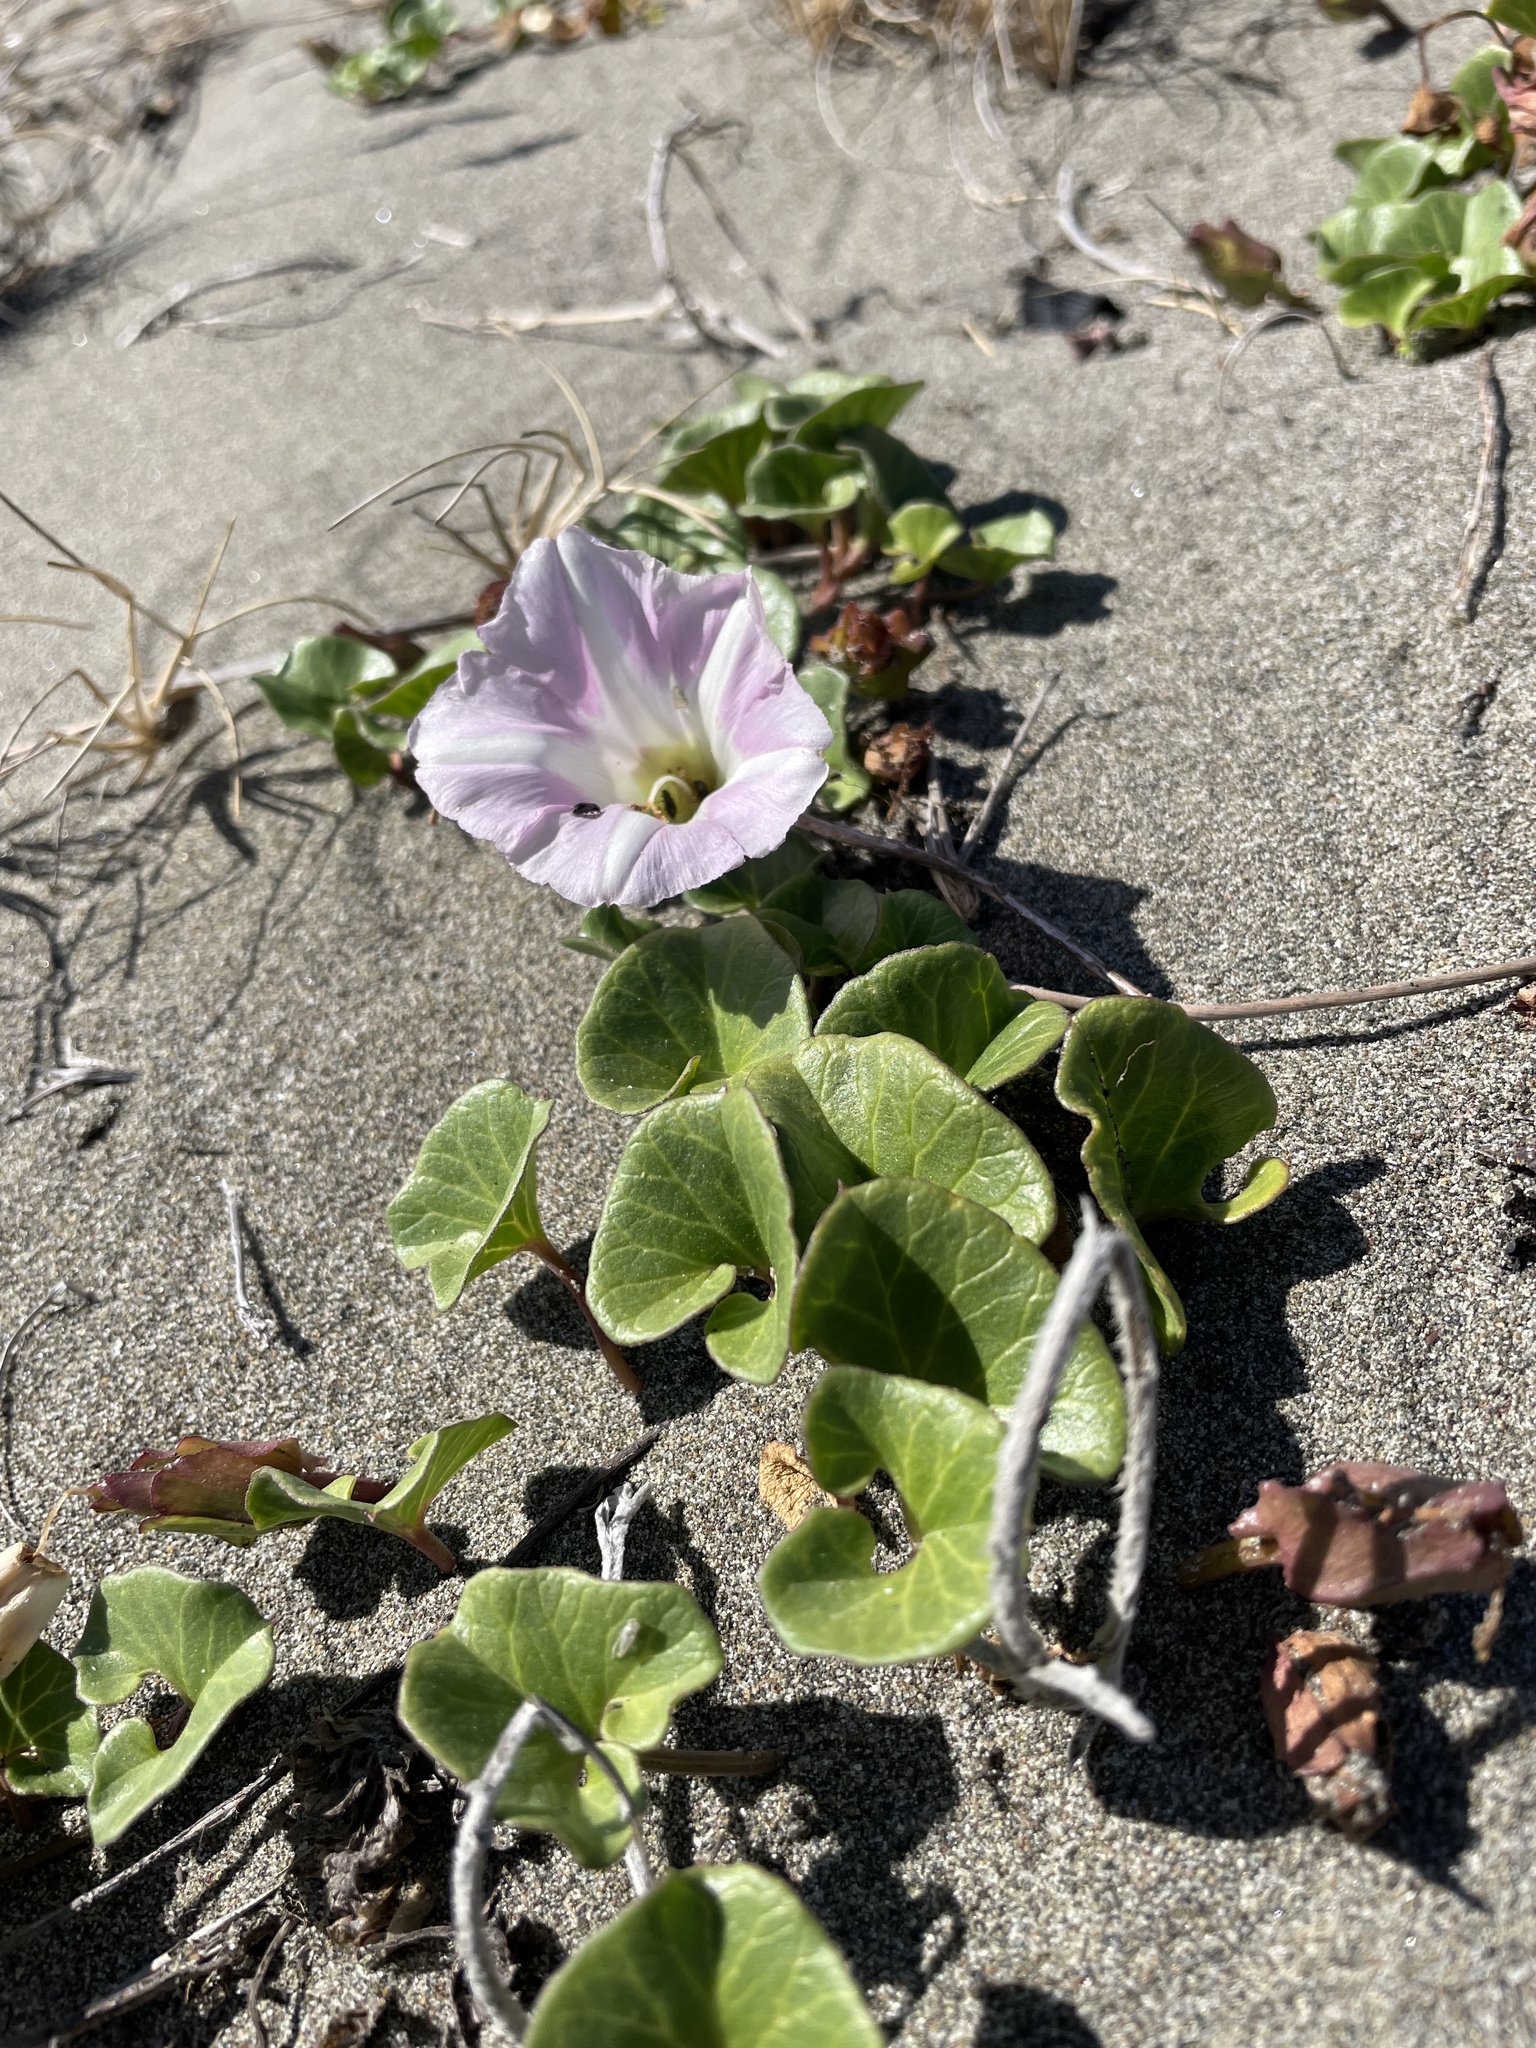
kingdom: Plantae
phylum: Tracheophyta
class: Magnoliopsida
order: Solanales
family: Convolvulaceae
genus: Calystegia
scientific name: Calystegia soldanella
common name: Sea bindweed
